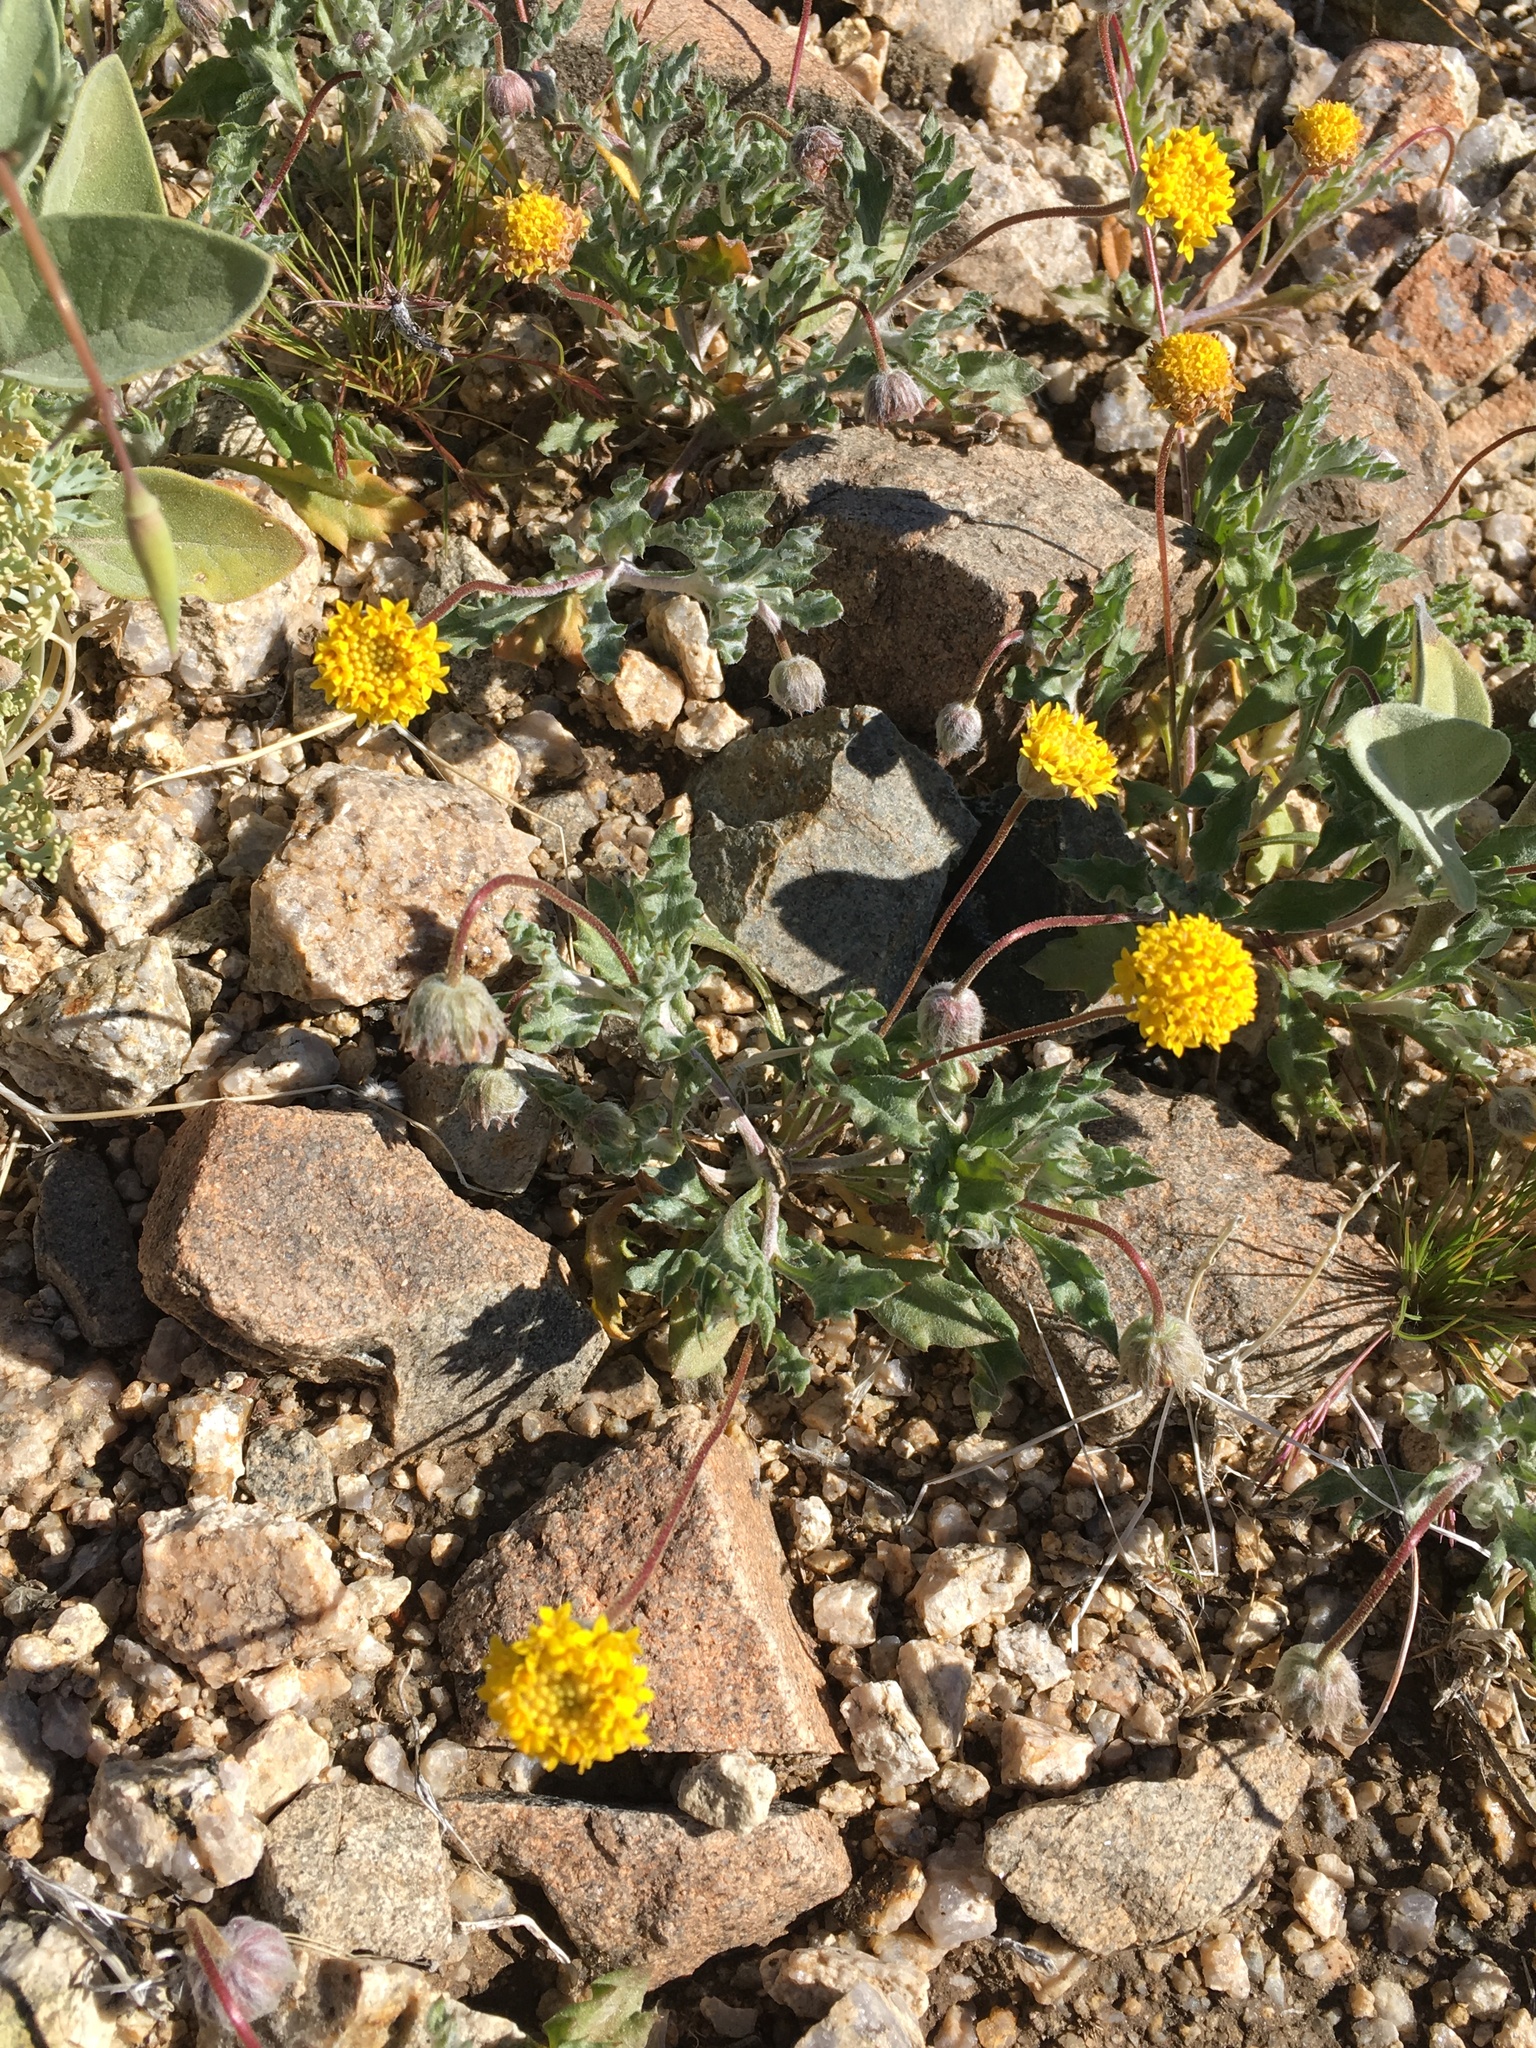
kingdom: Plantae
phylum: Tracheophyta
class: Magnoliopsida
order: Asterales
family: Asteraceae
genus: Trichoptilium
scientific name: Trichoptilium incisum
